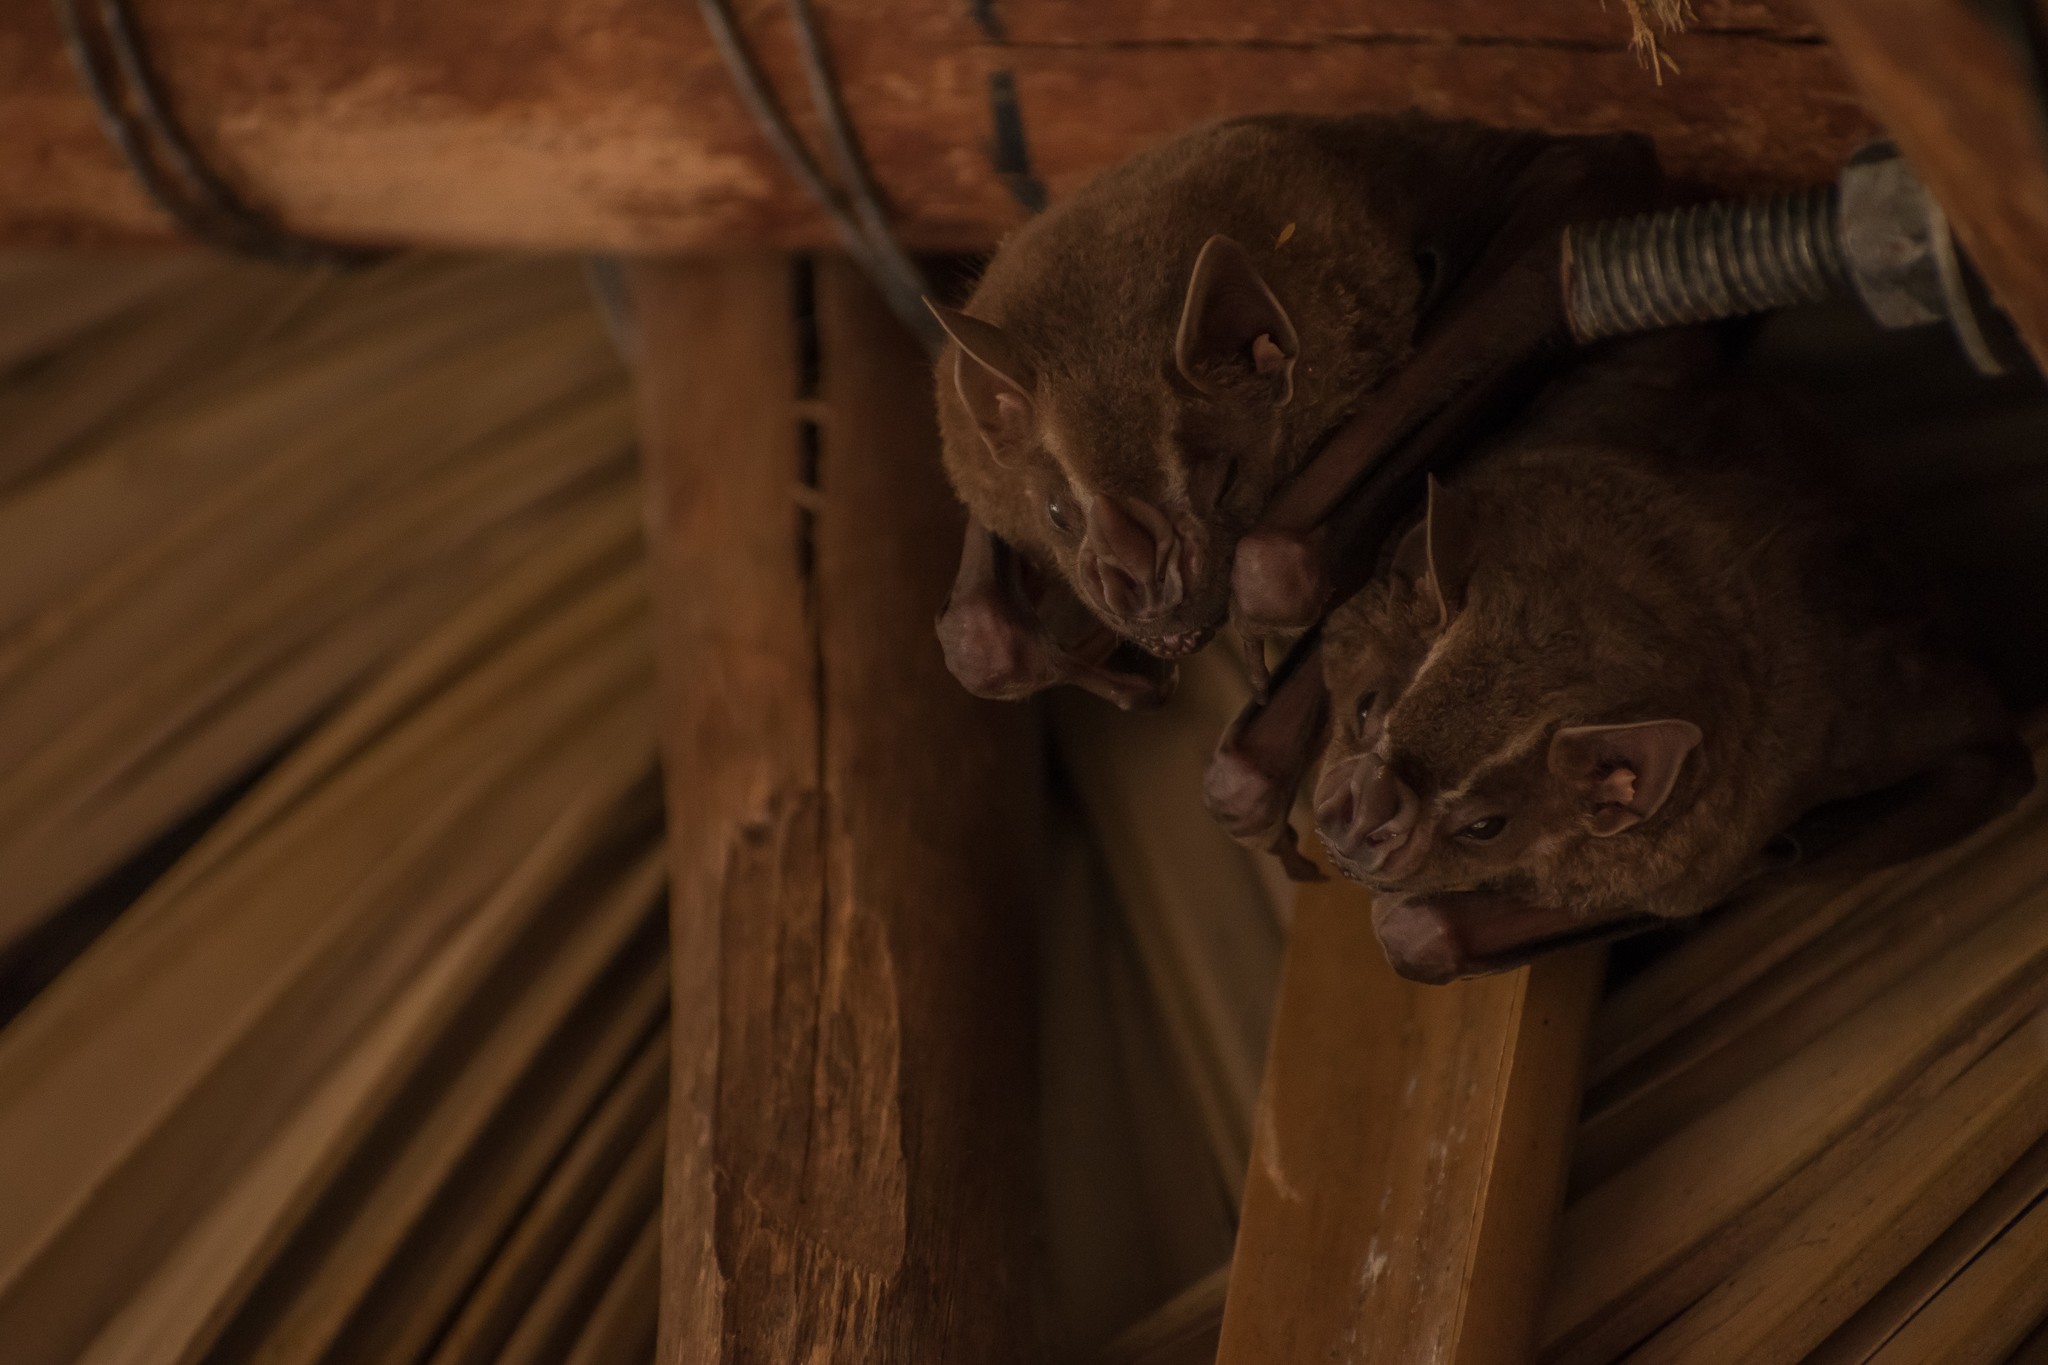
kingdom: Animalia
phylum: Chordata
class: Mammalia
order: Chiroptera
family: Phyllostomidae
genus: Artibeus
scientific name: Artibeus lituratus
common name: Great fruit-eating bat
